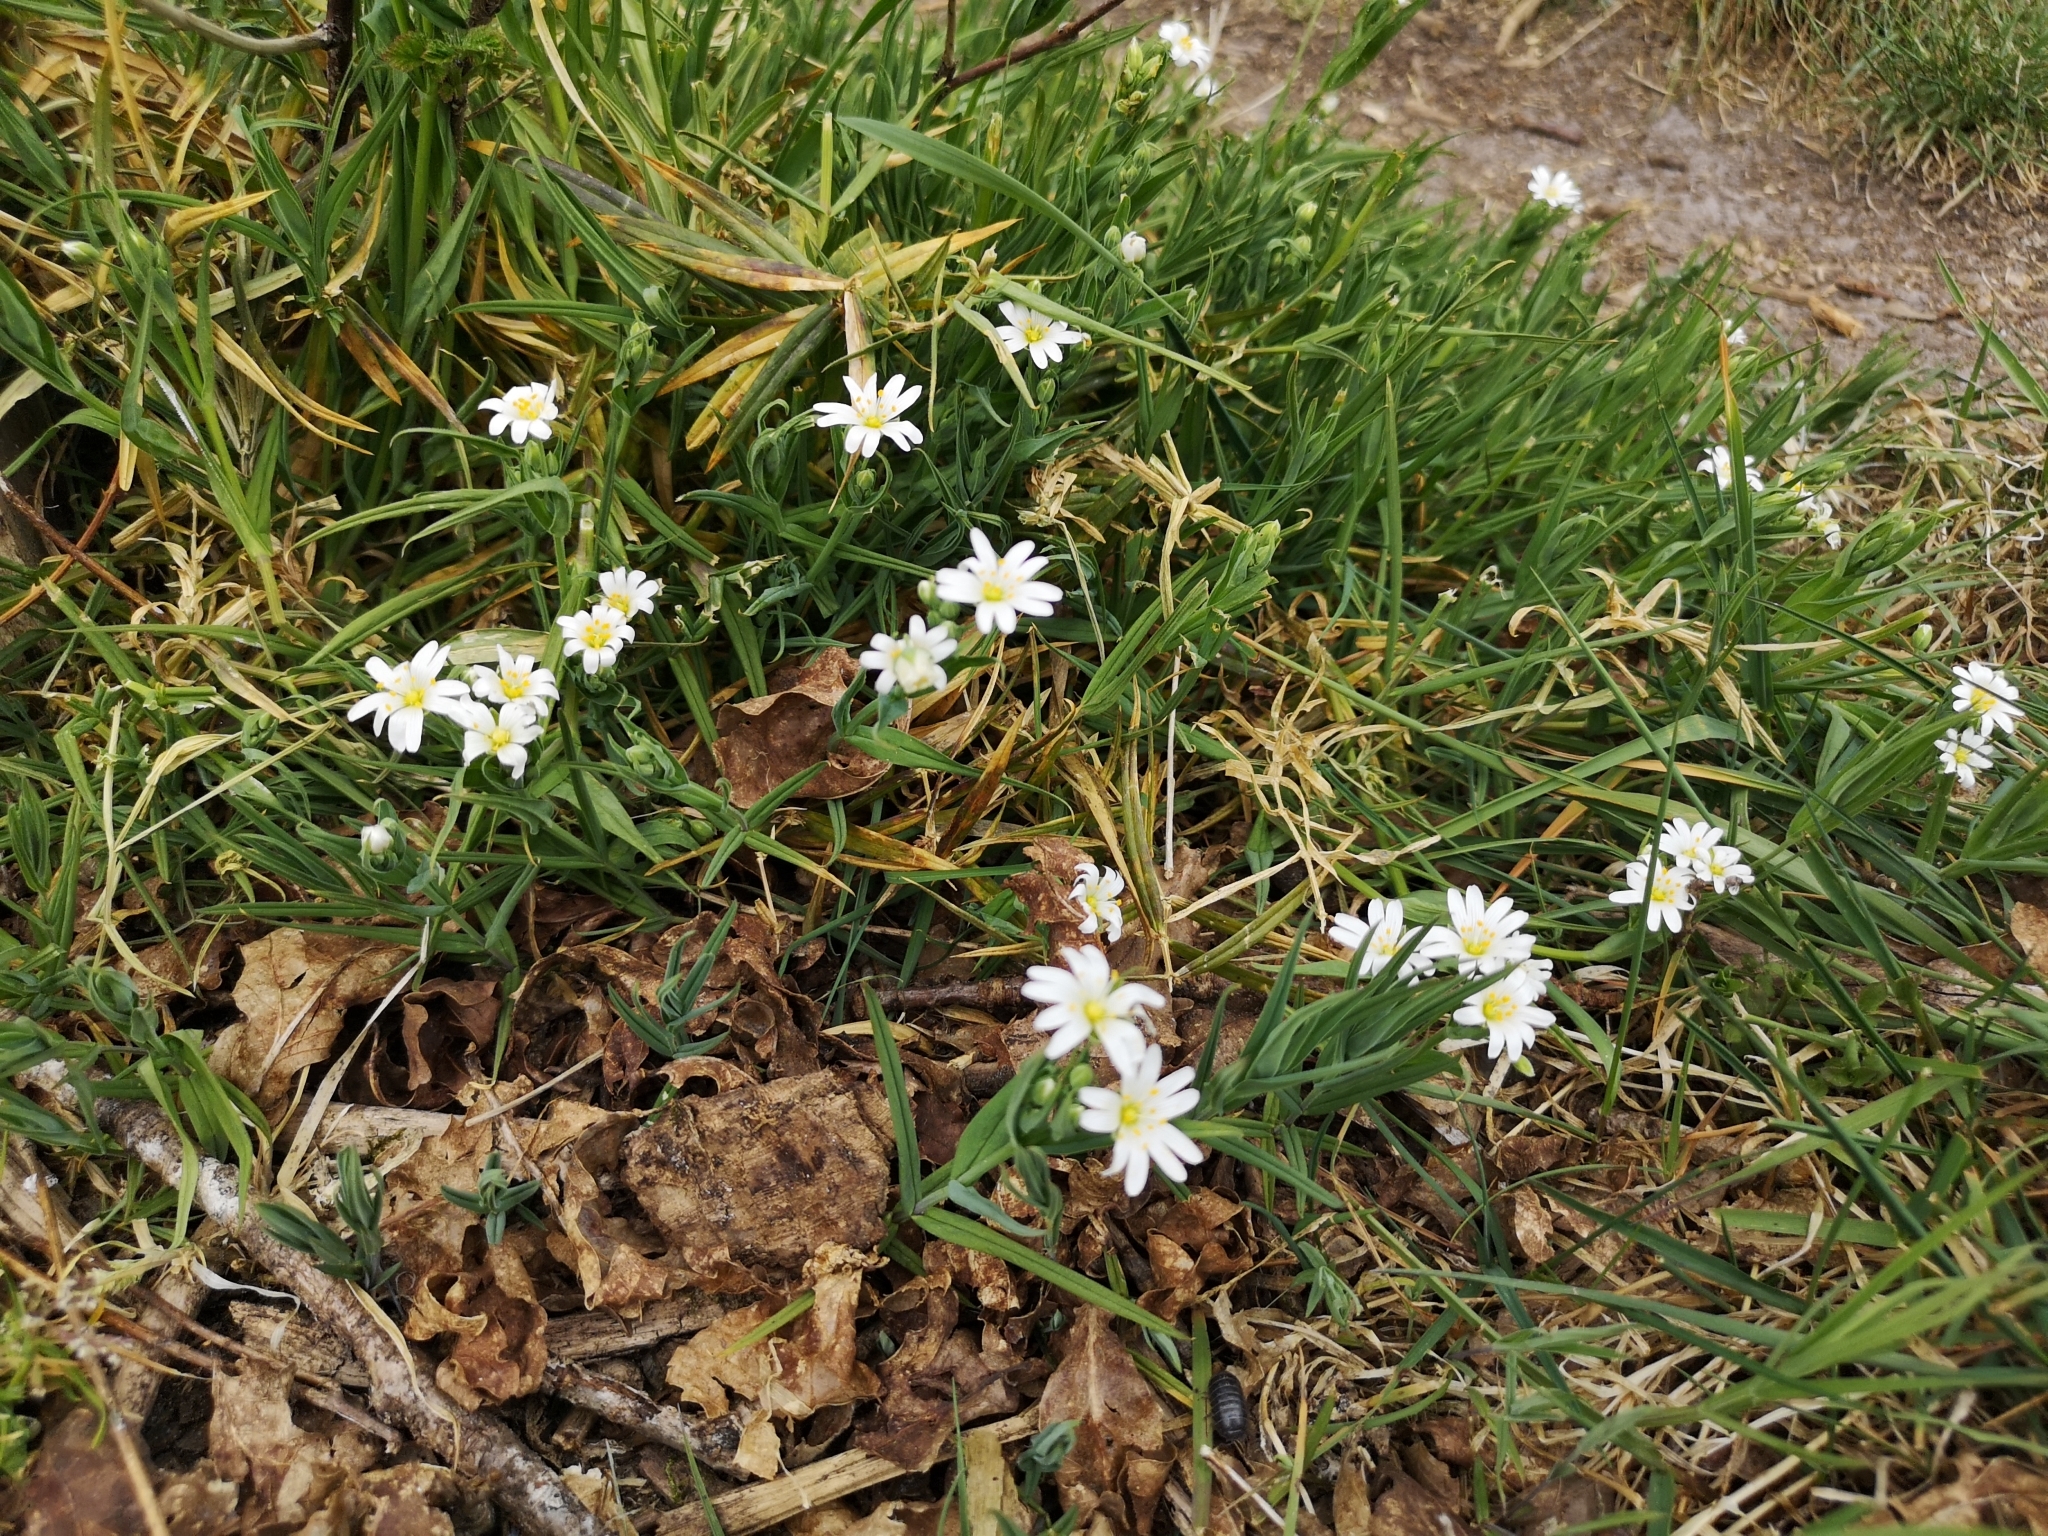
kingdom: Plantae
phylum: Tracheophyta
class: Magnoliopsida
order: Caryophyllales
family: Caryophyllaceae
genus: Rabelera
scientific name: Rabelera holostea
